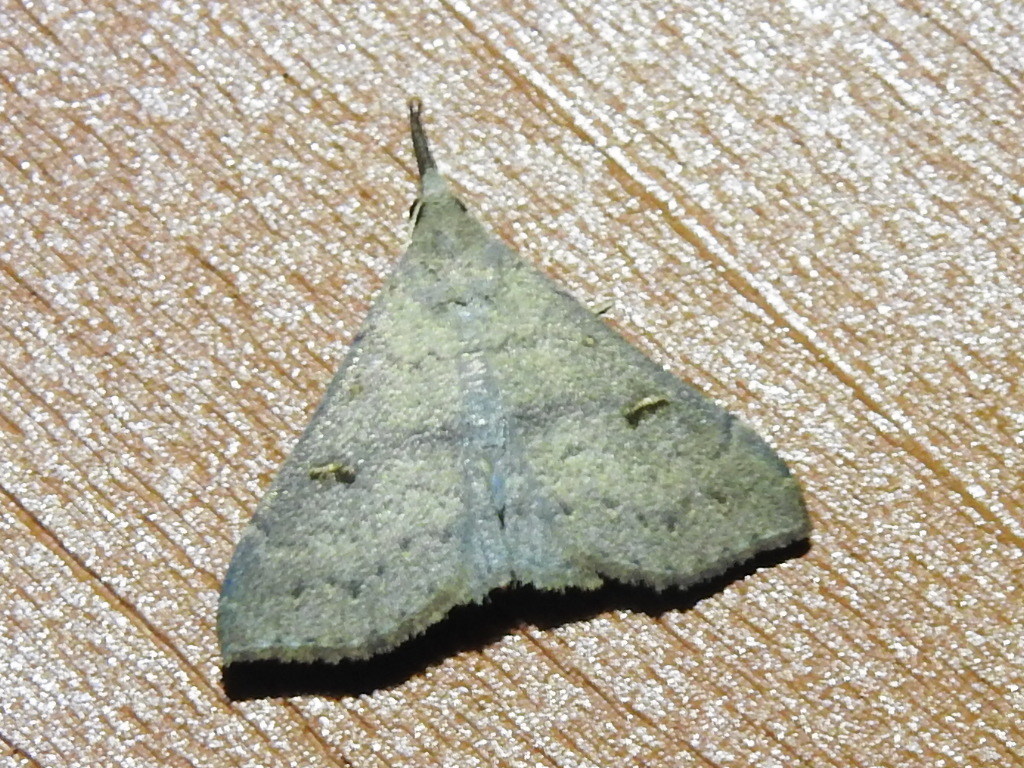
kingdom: Animalia
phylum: Arthropoda
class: Insecta
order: Lepidoptera
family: Erebidae
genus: Renia
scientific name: Renia adspergillus
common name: Speckled renia moth
